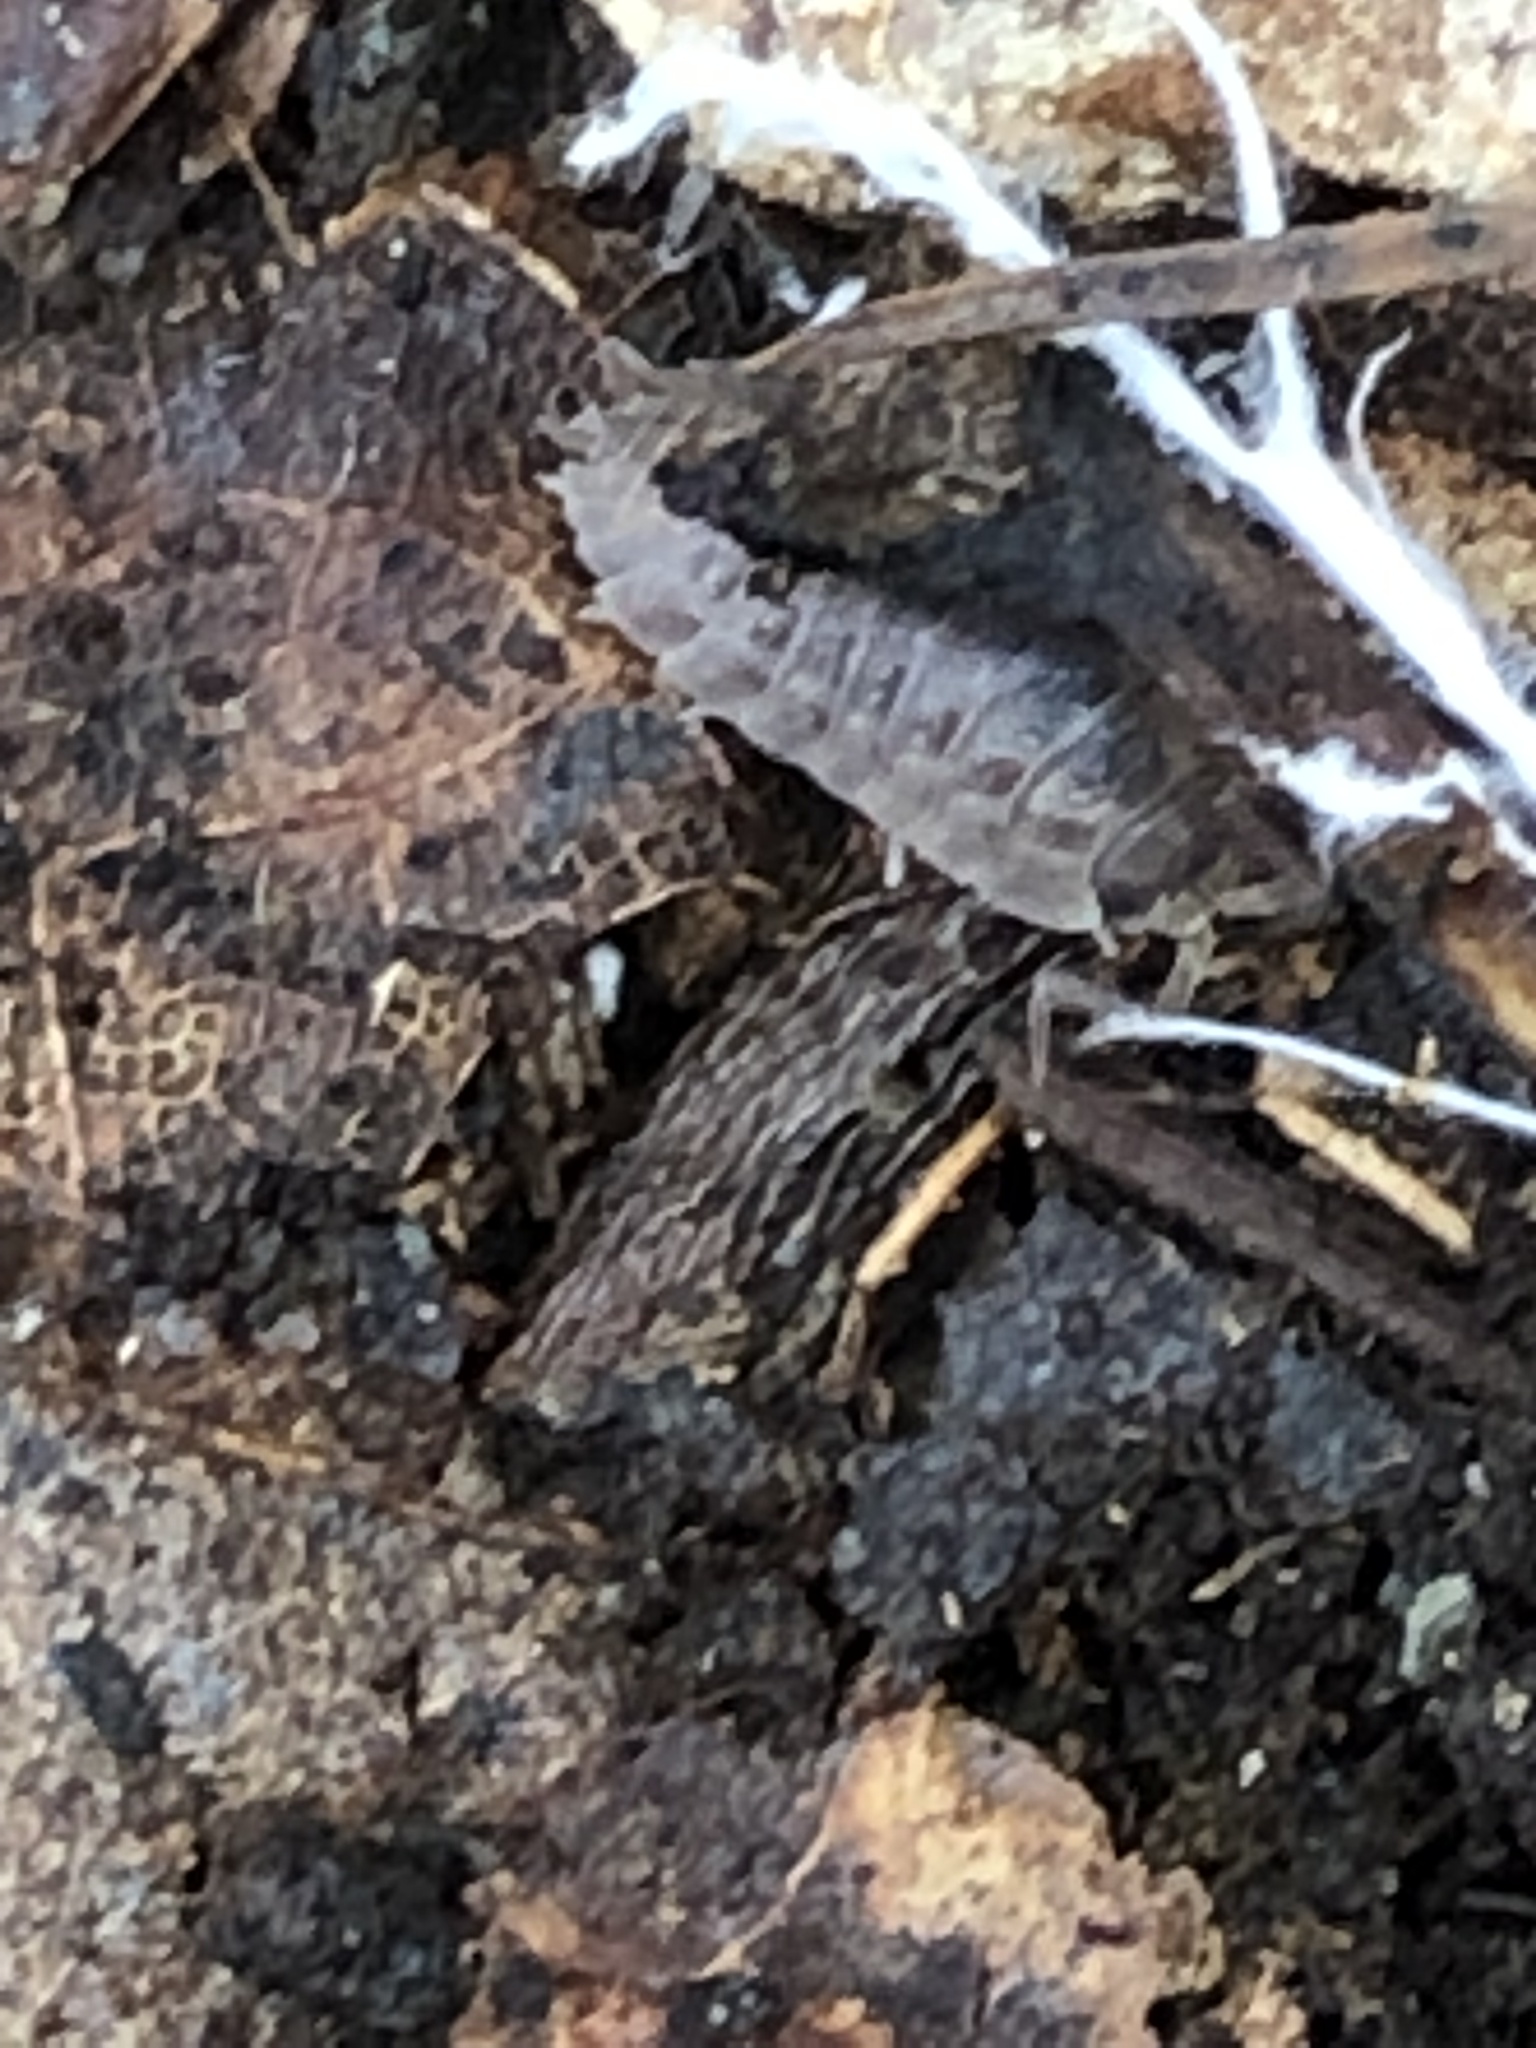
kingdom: Animalia
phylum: Arthropoda
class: Malacostraca
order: Isopoda
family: Trachelipodidae
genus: Trachelipus
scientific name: Trachelipus rathkii
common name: Isopod
